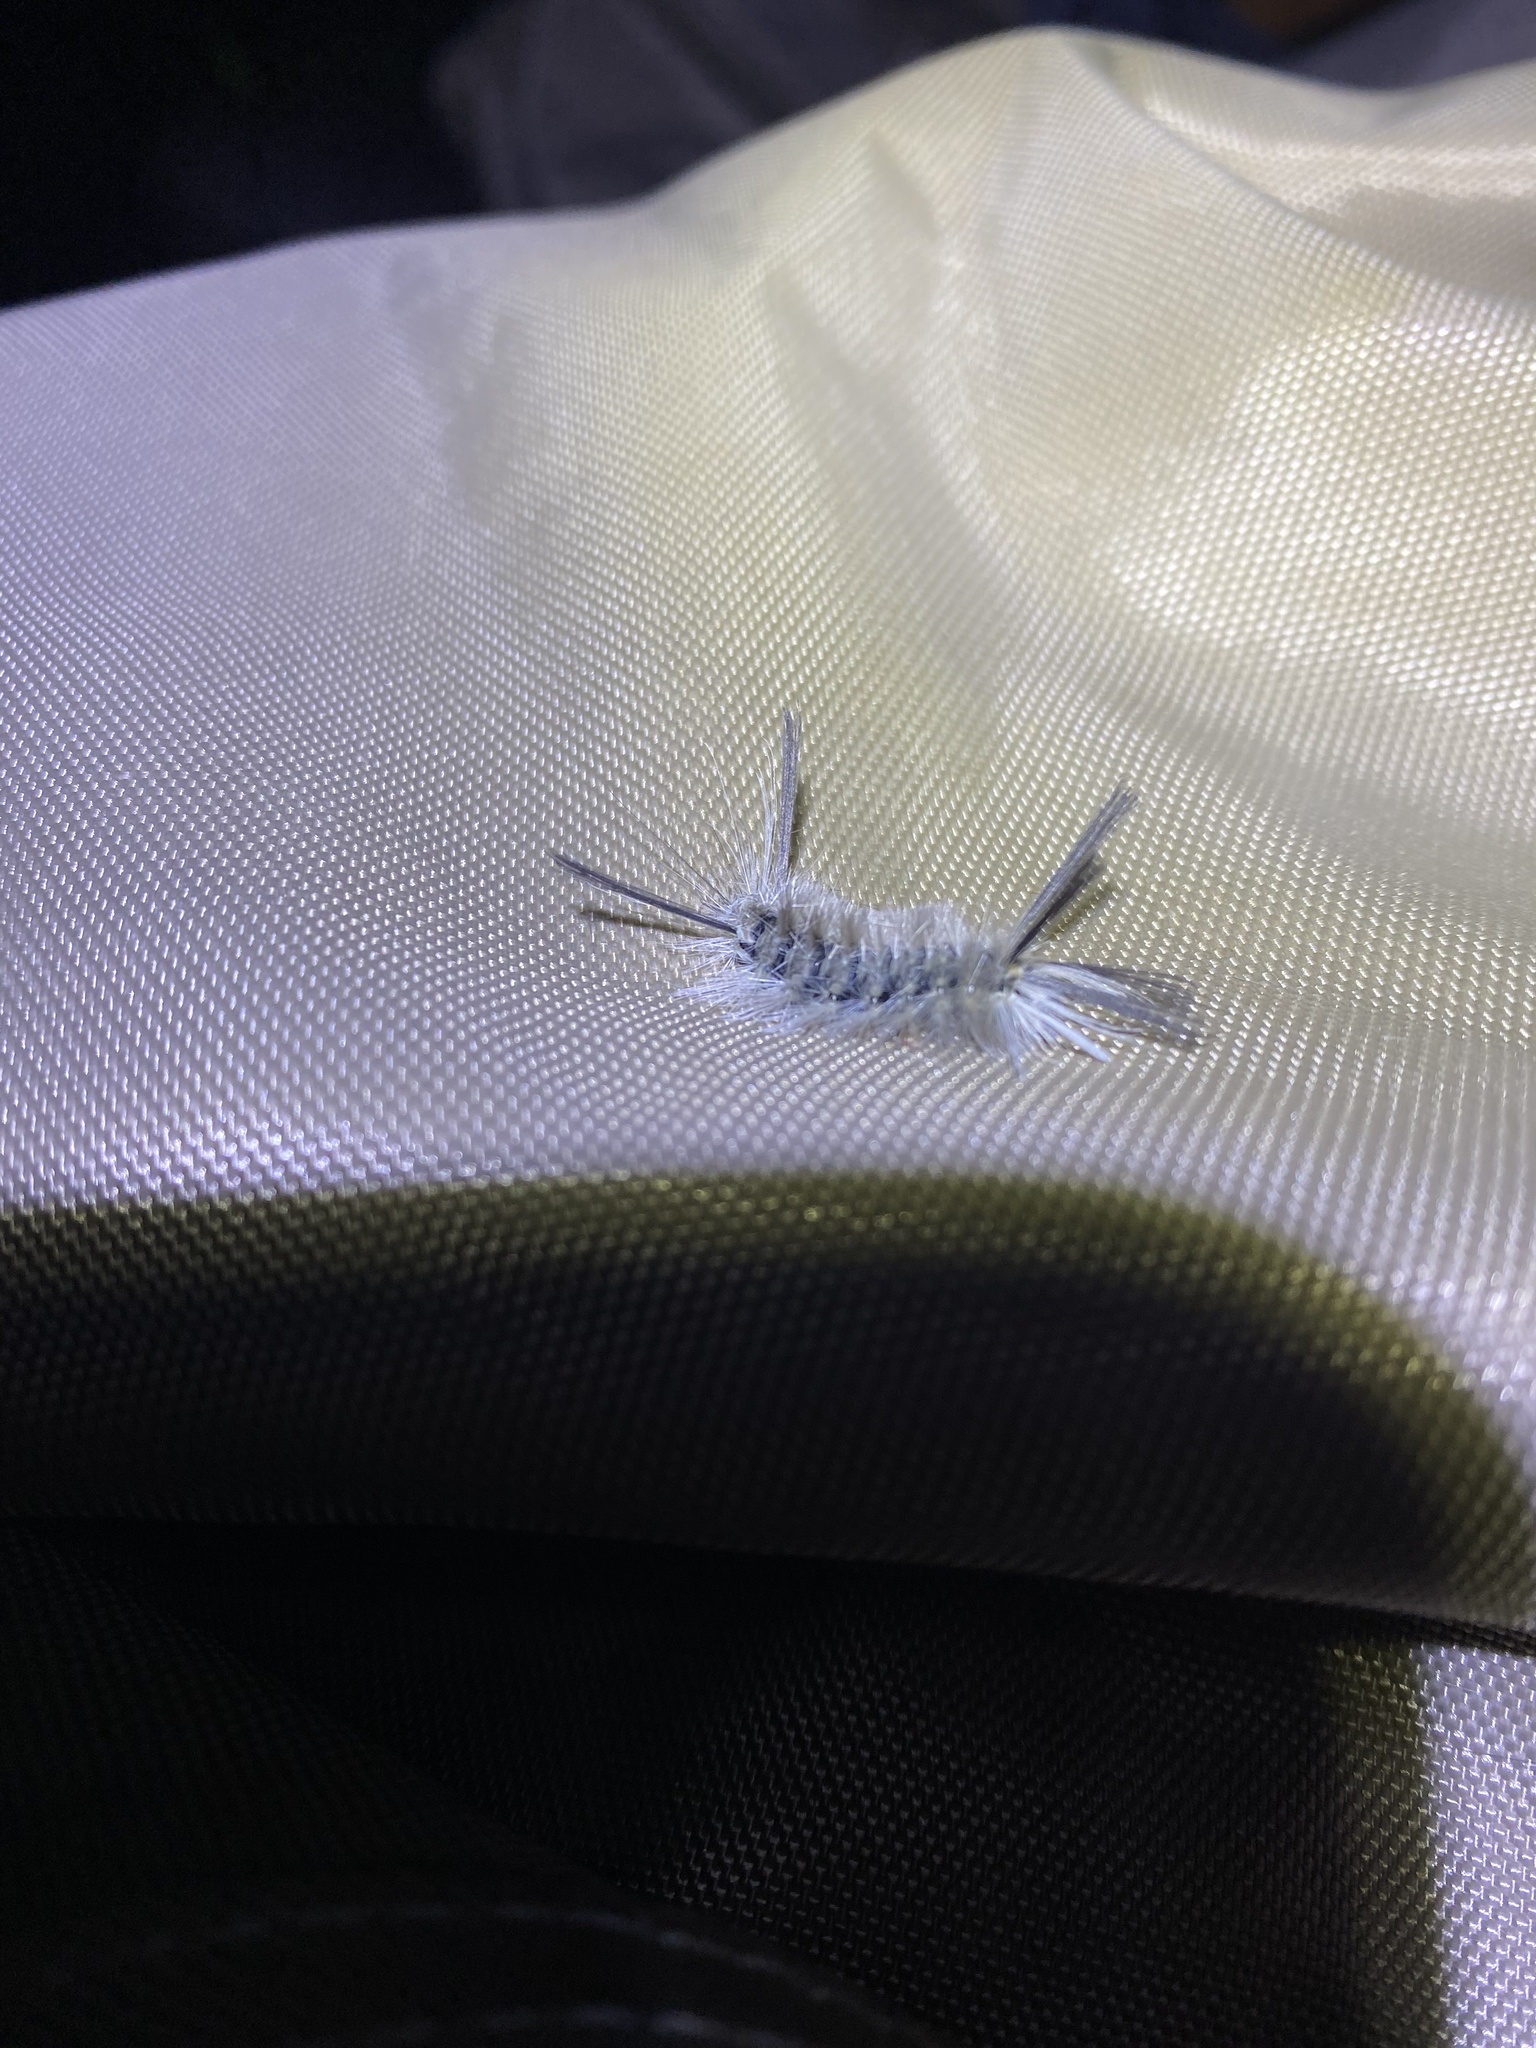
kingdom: Animalia
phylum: Arthropoda
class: Insecta
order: Lepidoptera
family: Erebidae
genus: Halysidota
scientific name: Halysidota tessellaris
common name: Banded tussock moth
